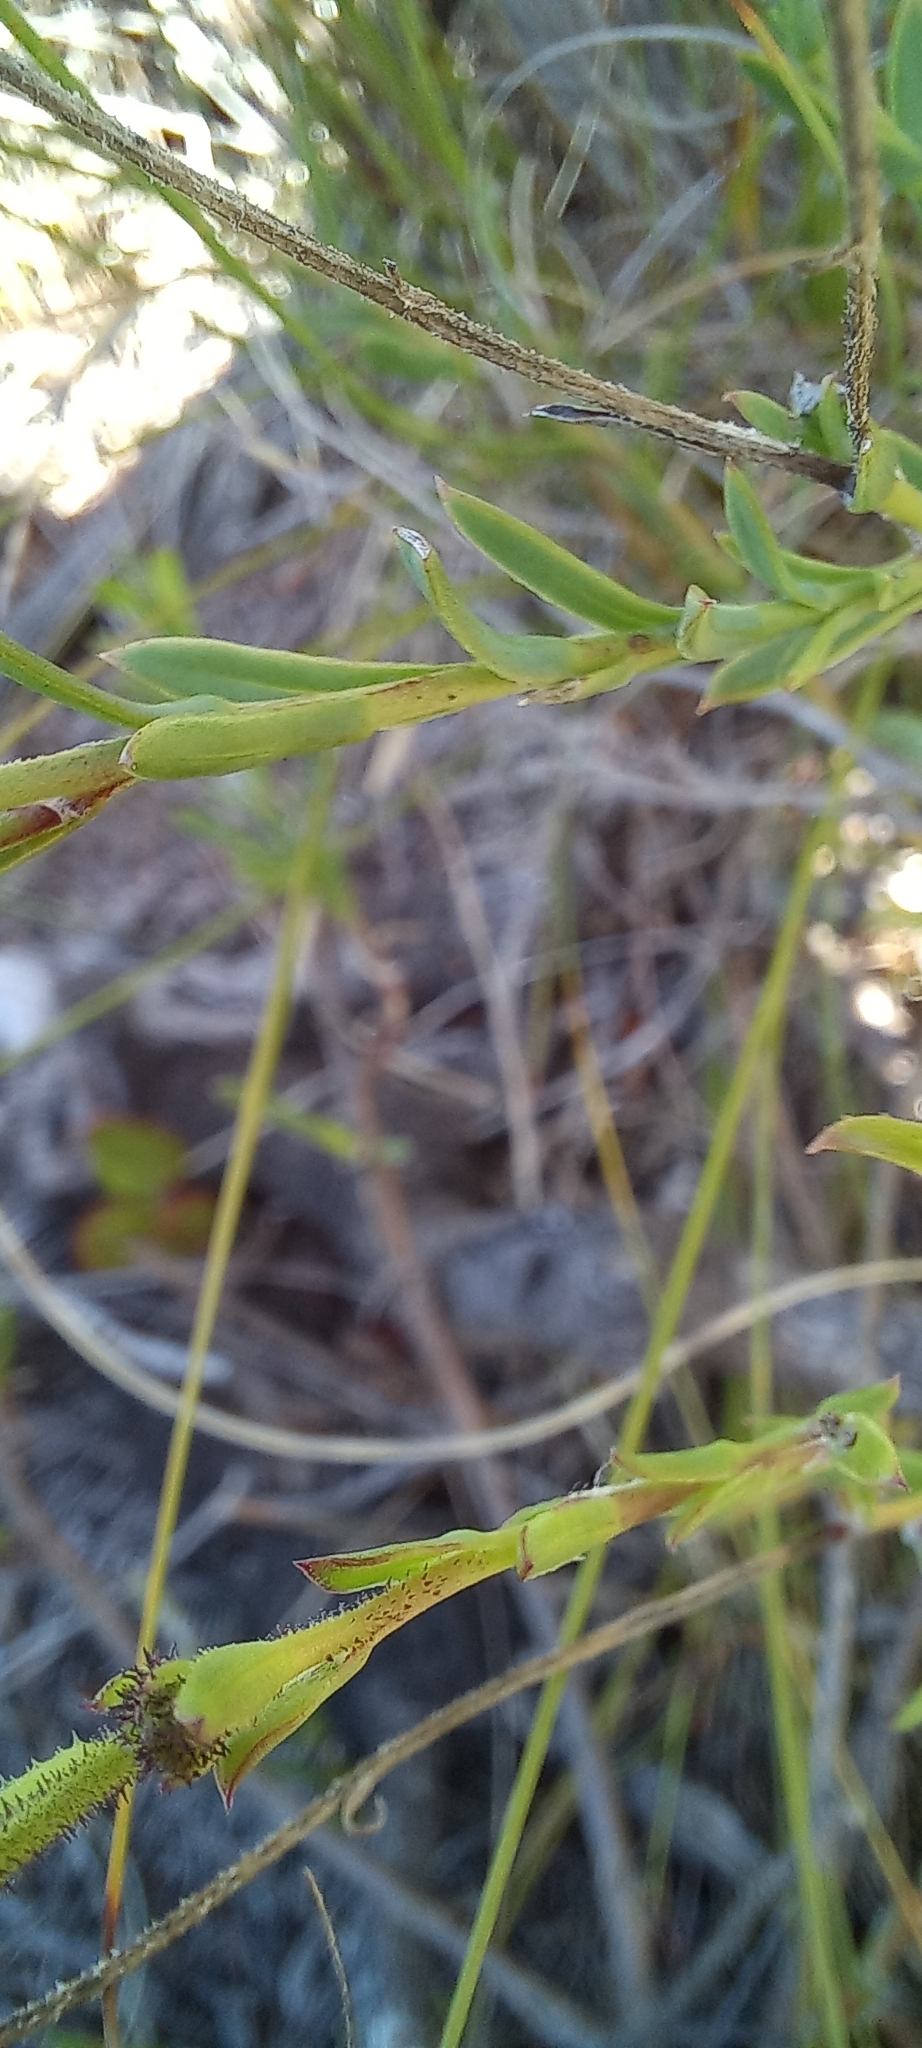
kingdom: Plantae
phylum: Tracheophyta
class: Magnoliopsida
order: Asterales
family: Asteraceae
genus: Osteospermum
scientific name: Osteospermum polygaloides
